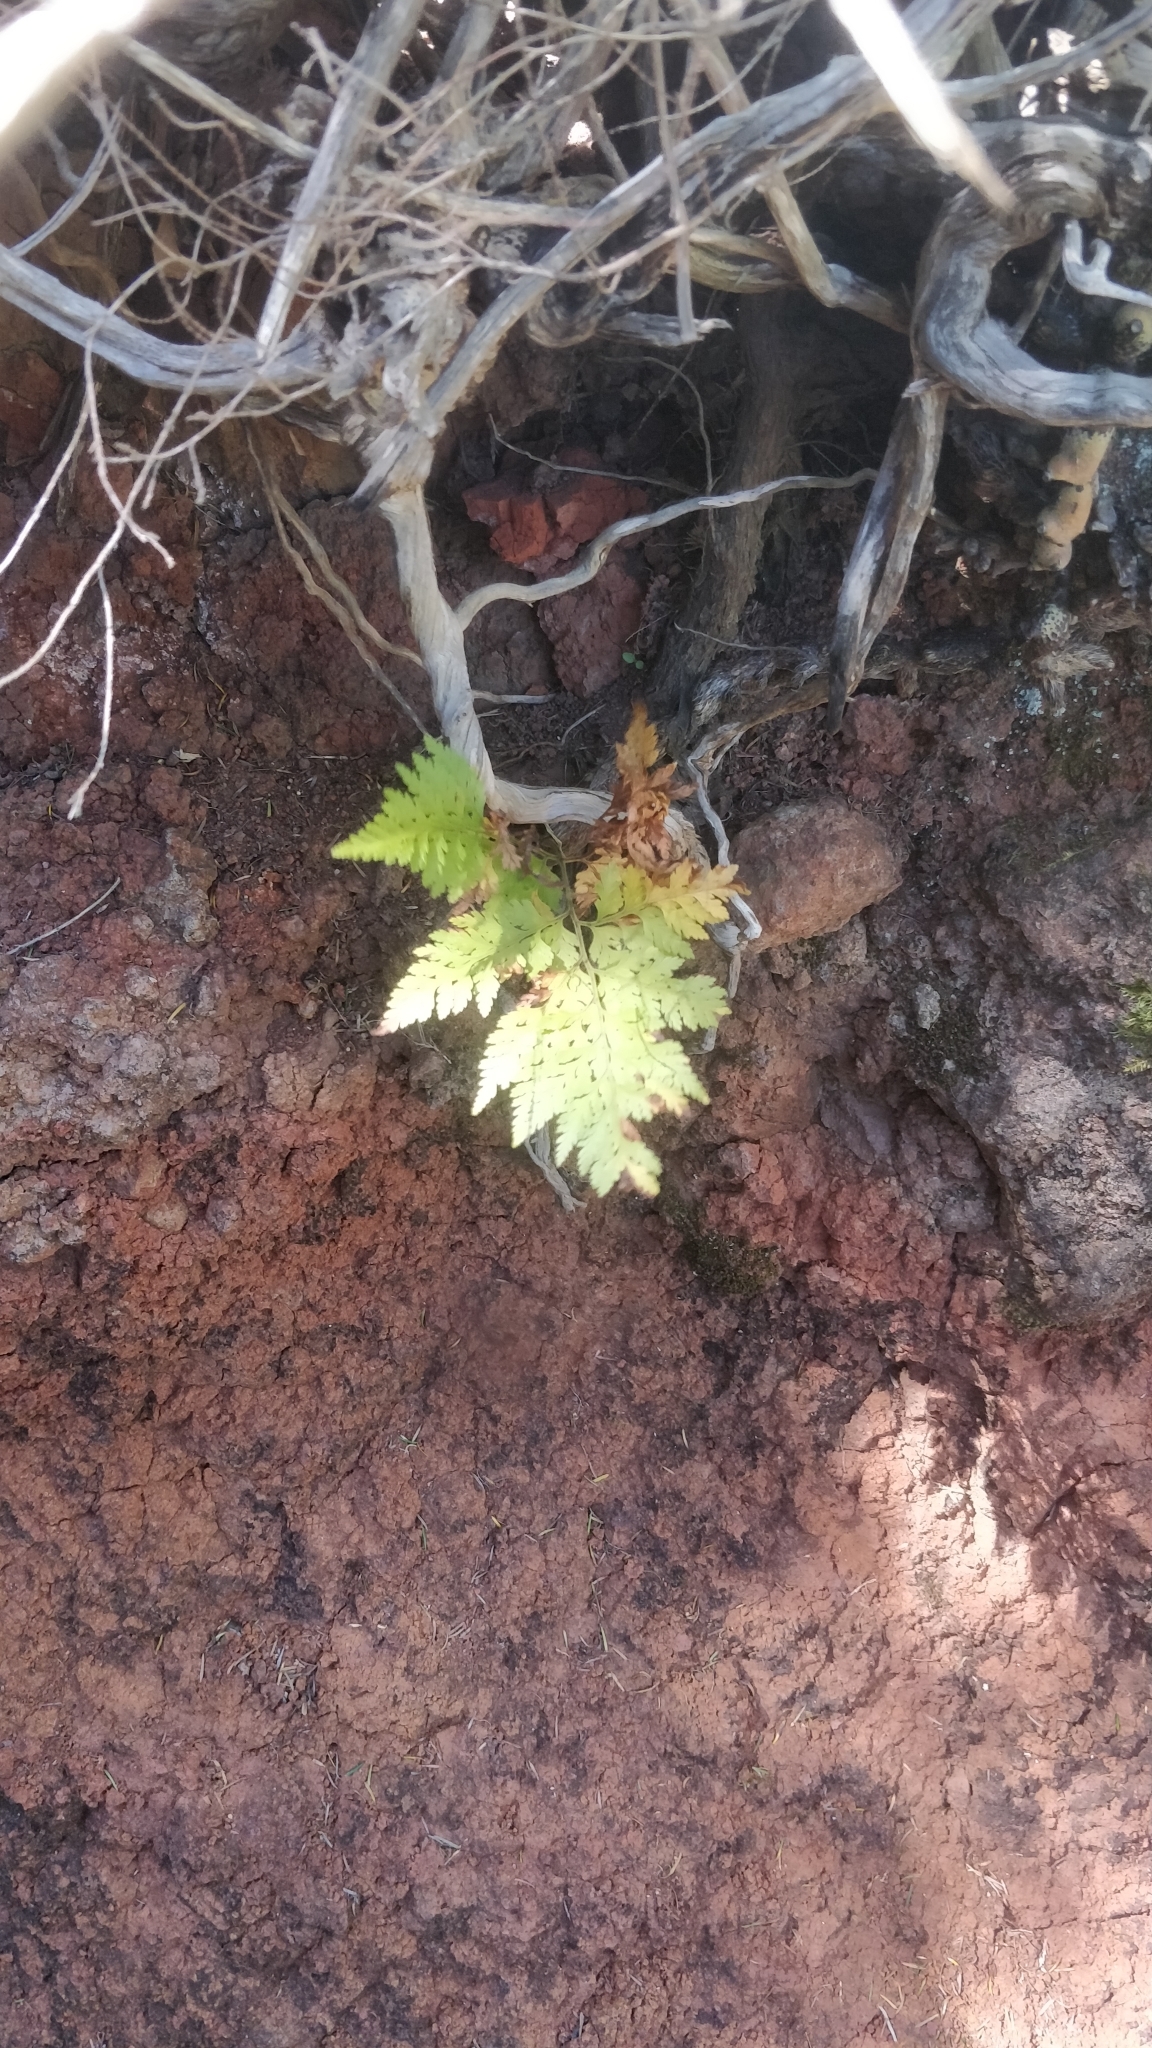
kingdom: Plantae
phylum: Tracheophyta
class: Polypodiopsida
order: Polypodiales
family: Davalliaceae
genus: Davallia
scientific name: Davallia canariensis
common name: Hare's-foot fern
